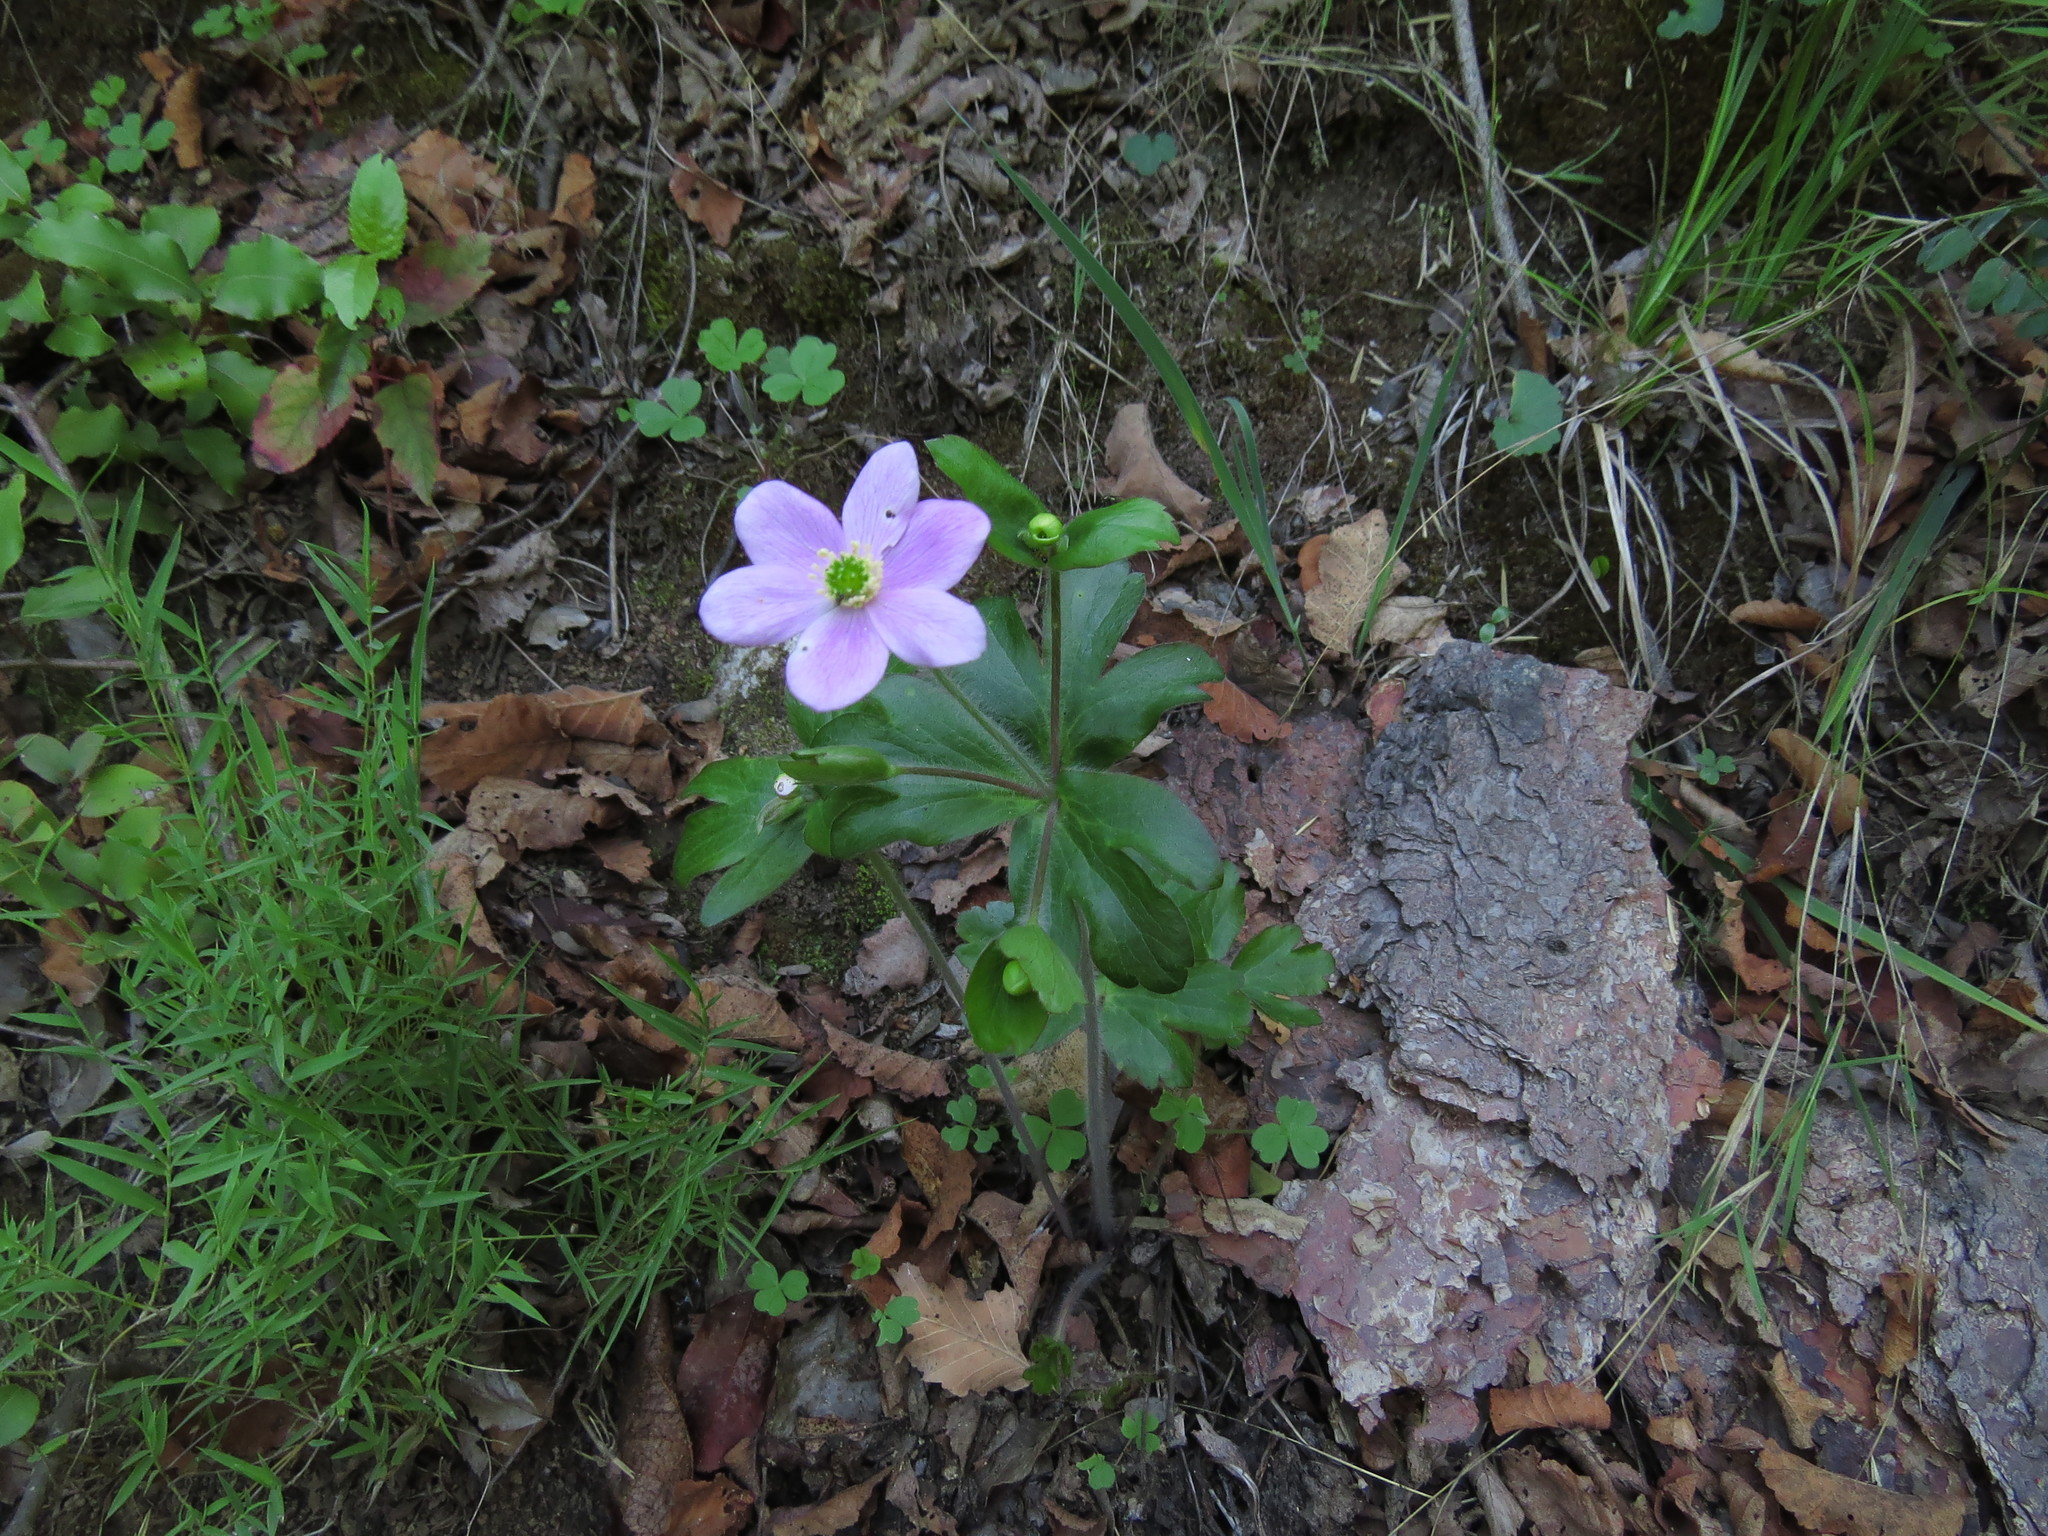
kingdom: Plantae
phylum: Tracheophyta
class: Magnoliopsida
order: Ranunculales
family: Ranunculaceae
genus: Knowltonia
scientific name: Knowltonia hootae
